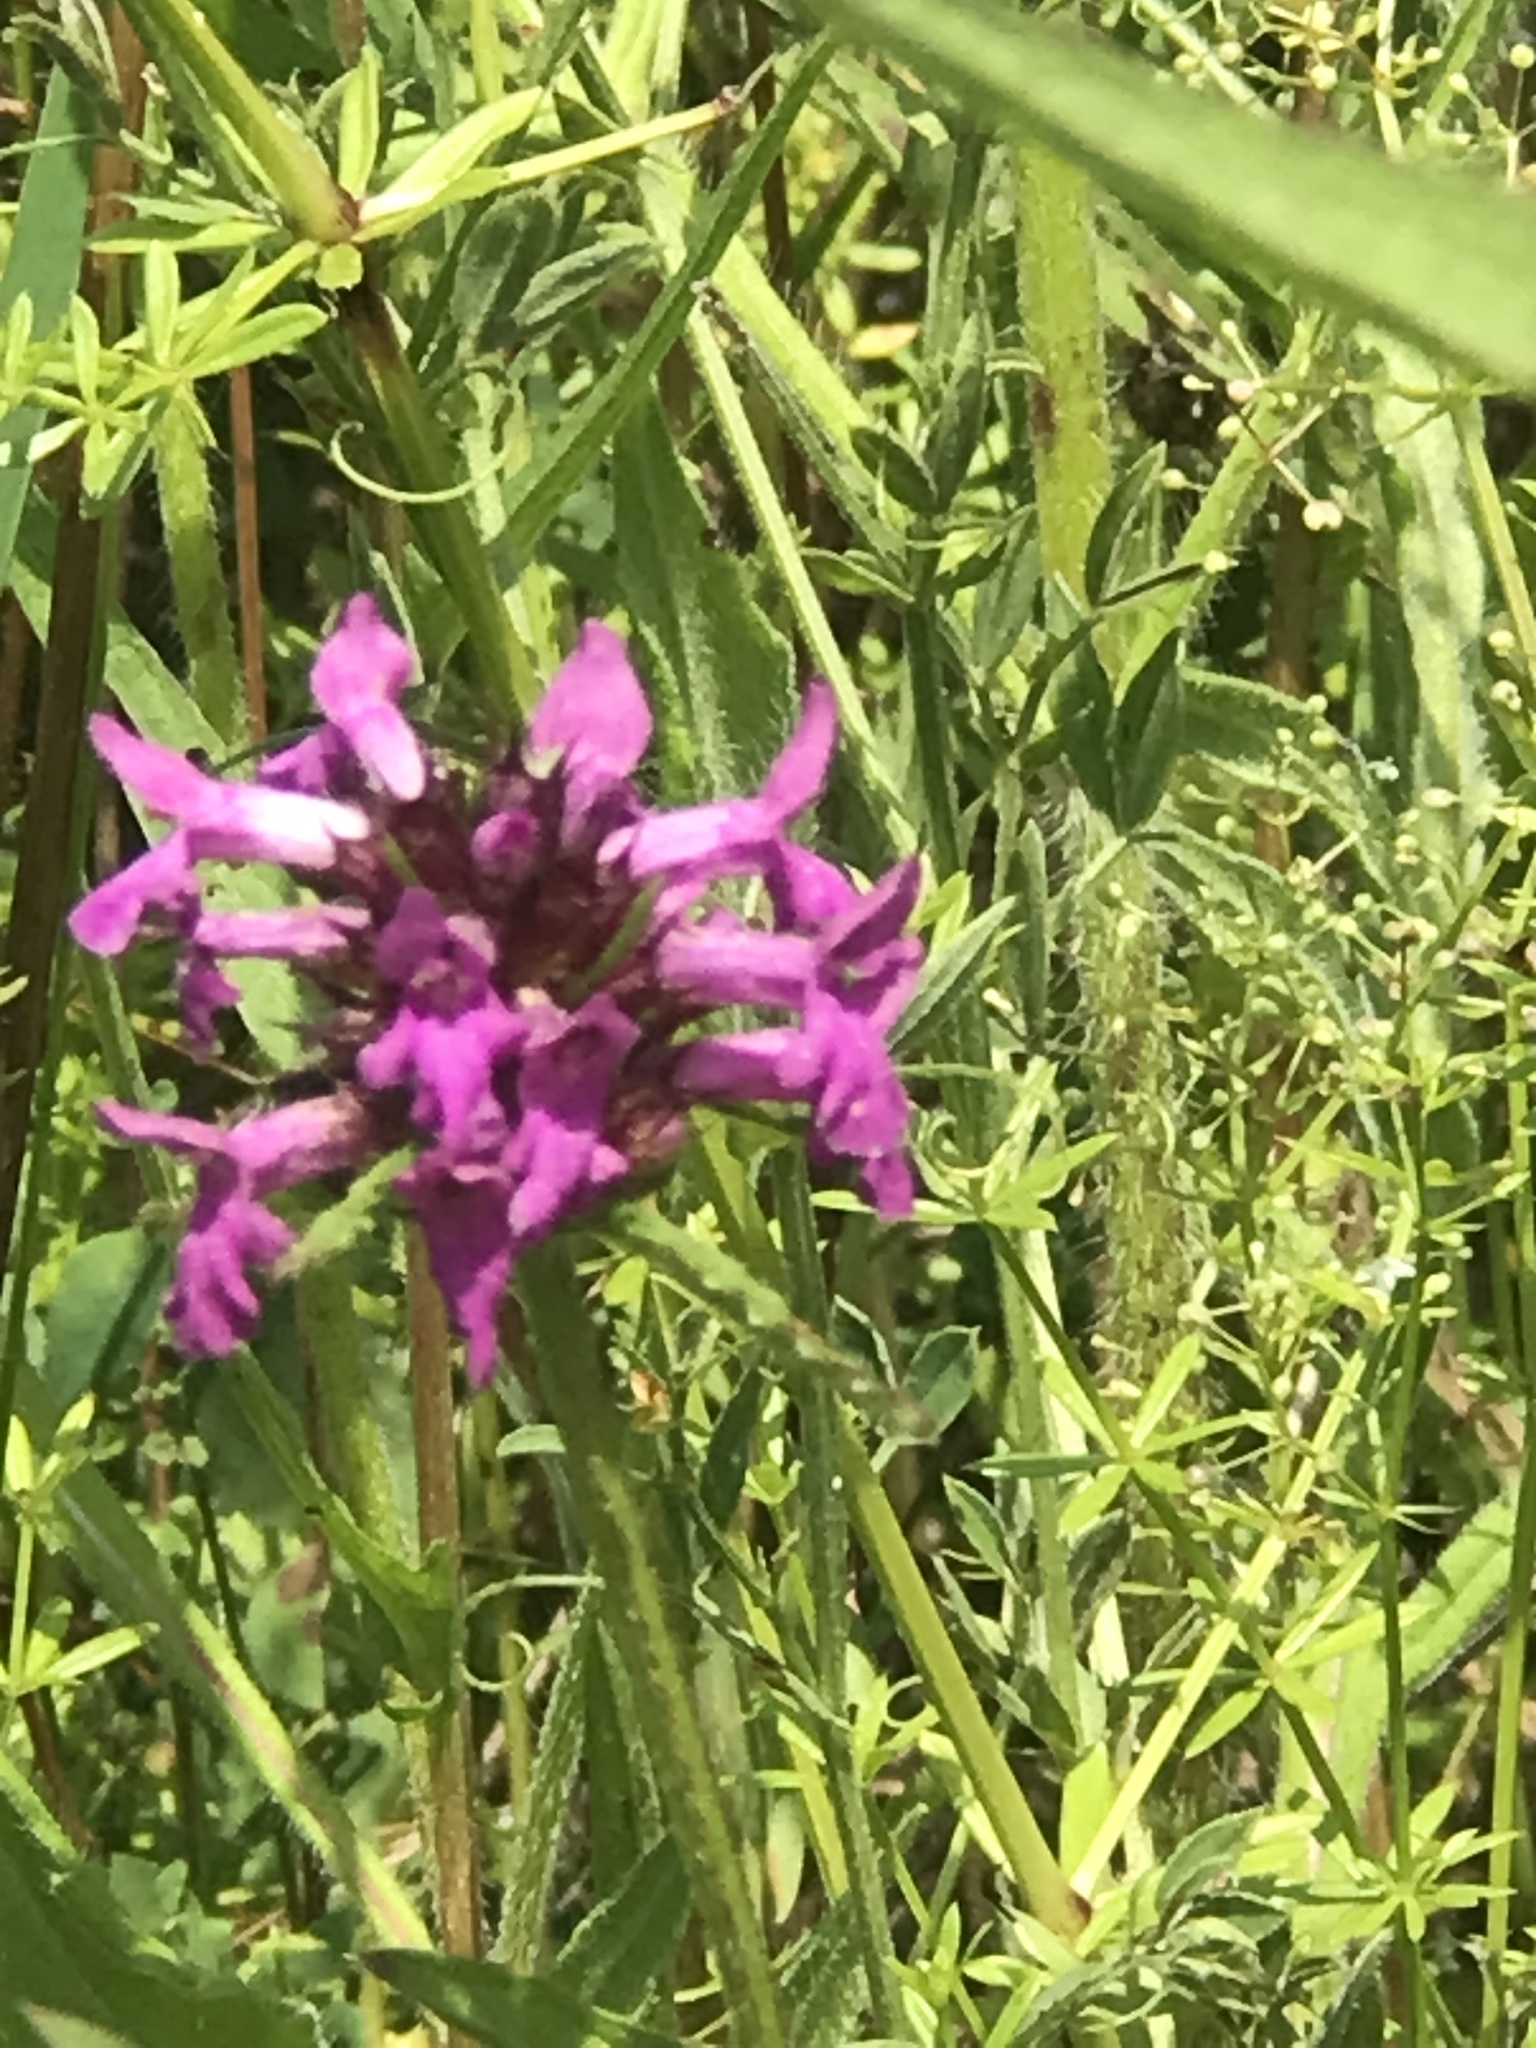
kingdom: Plantae
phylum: Tracheophyta
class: Magnoliopsida
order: Lamiales
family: Lamiaceae
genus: Betonica
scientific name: Betonica officinalis
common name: Bishop's-wort
